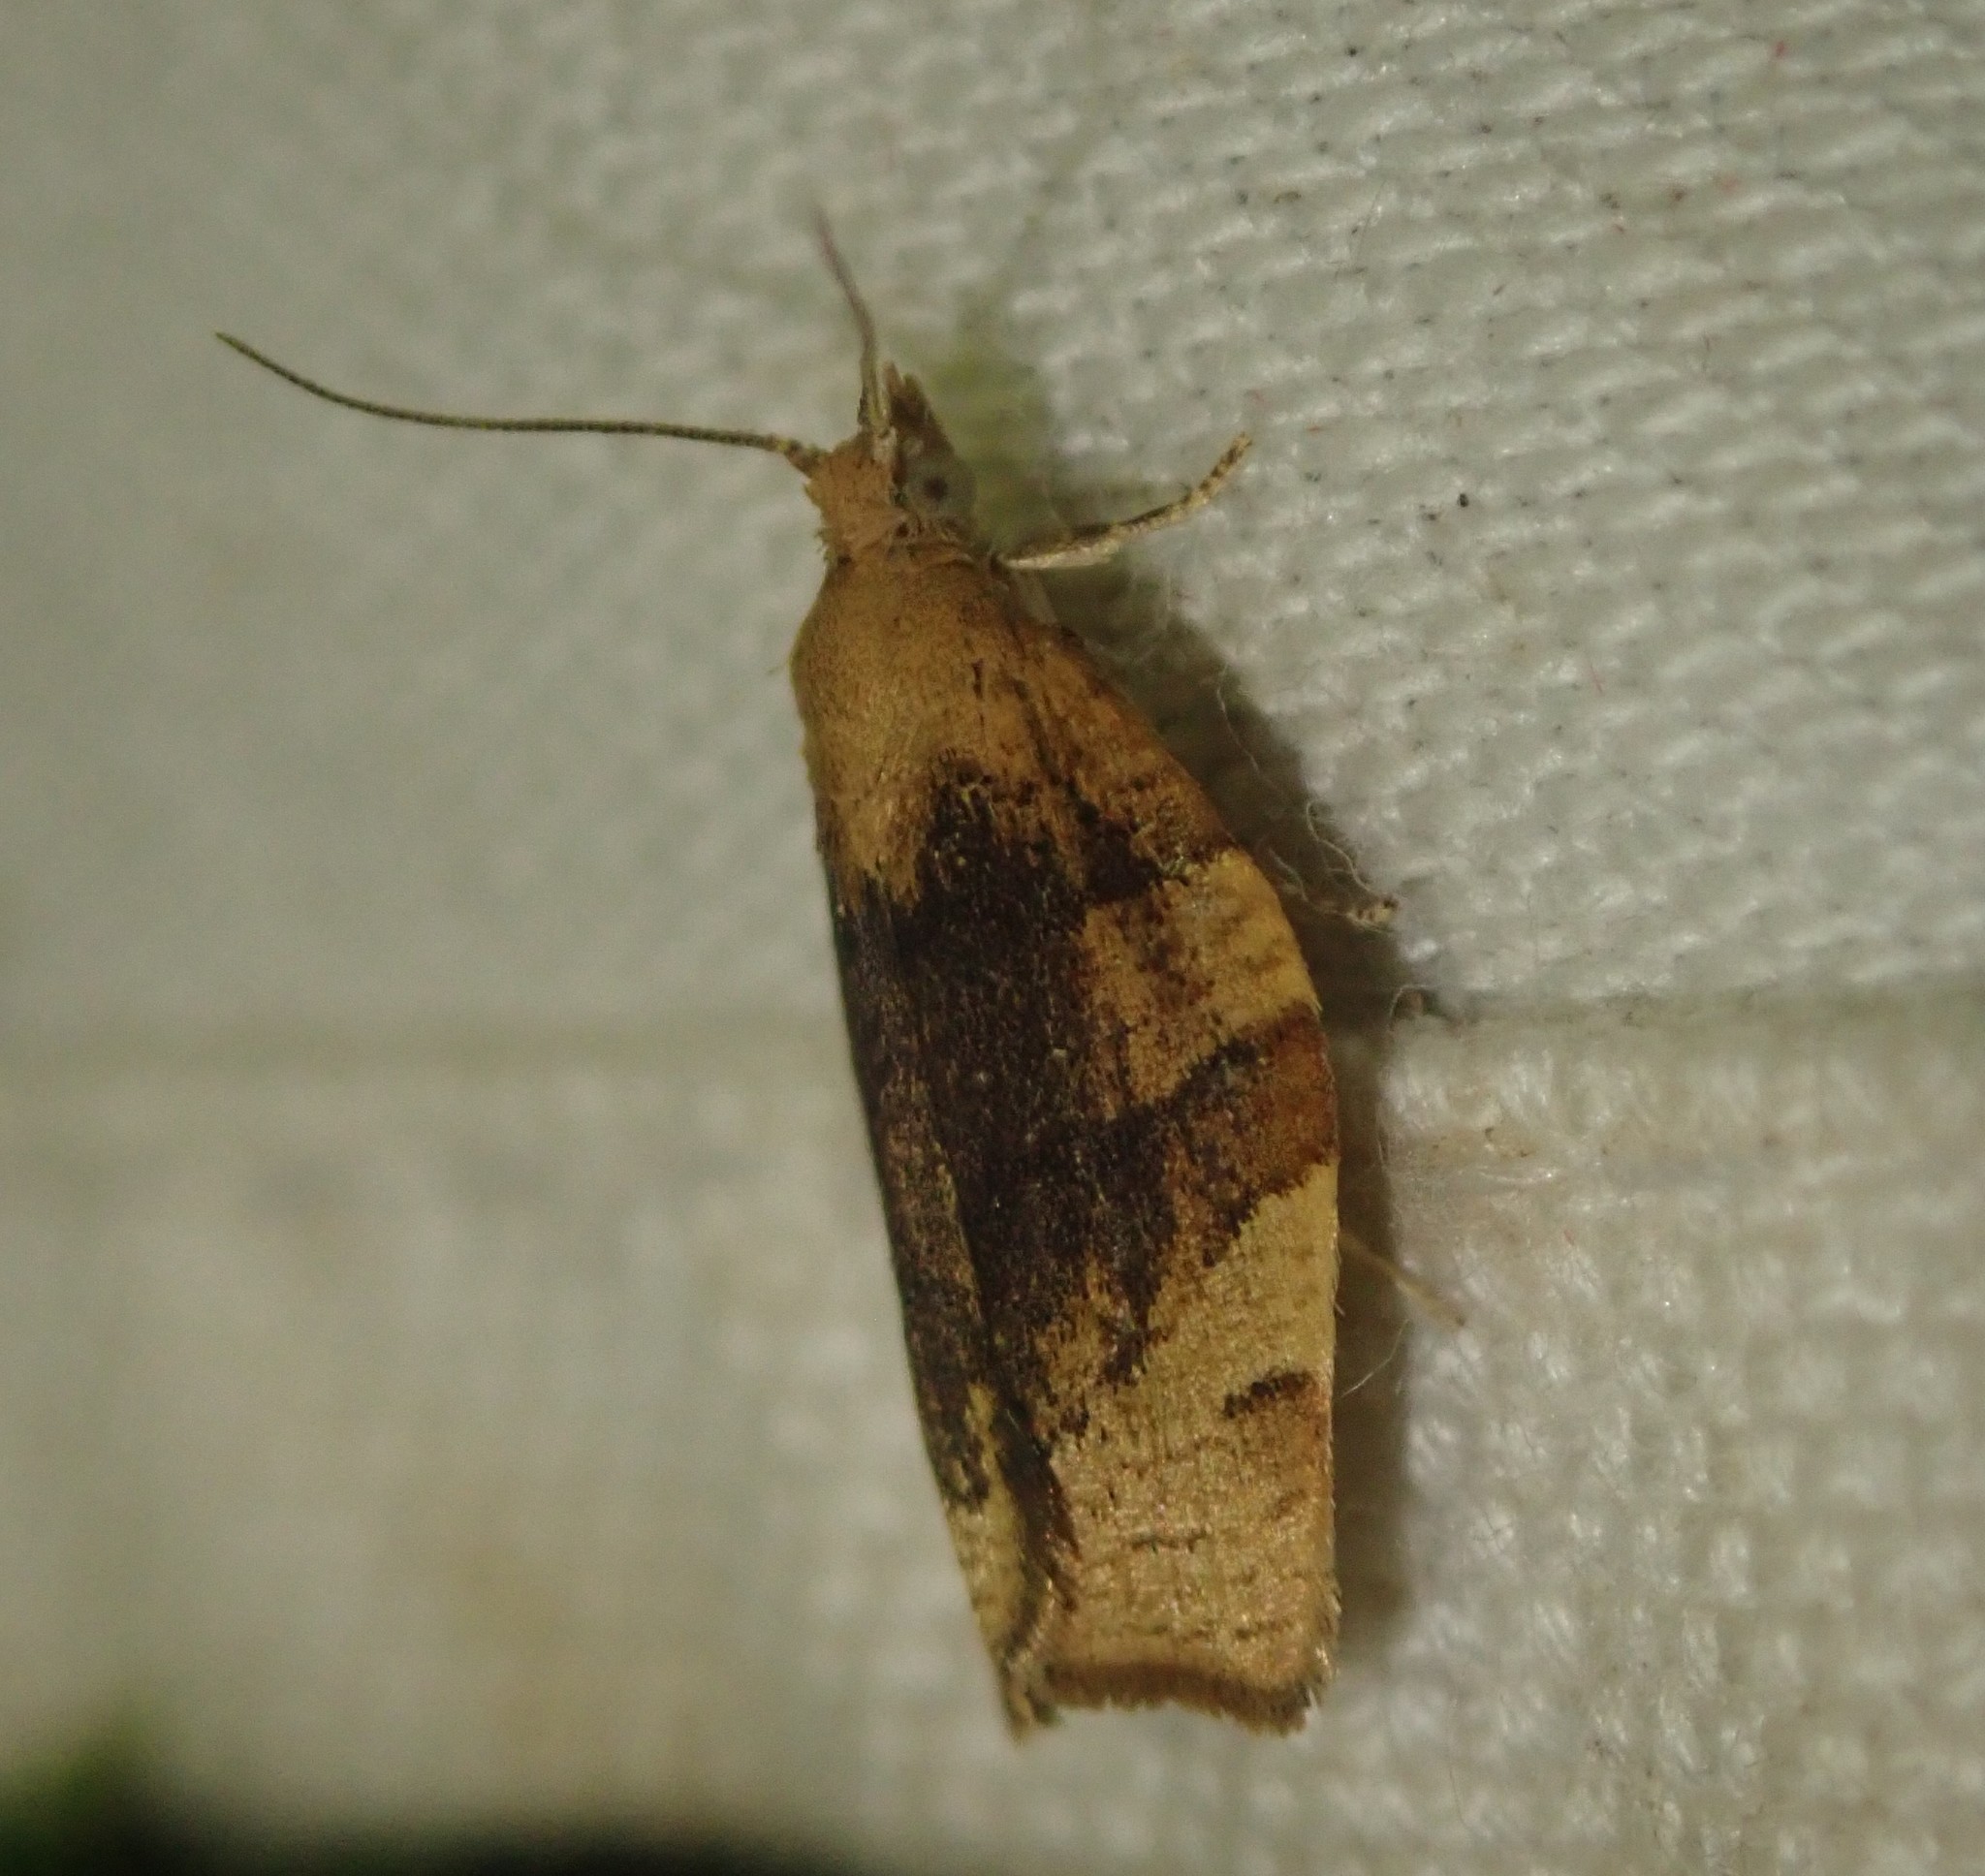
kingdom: Animalia
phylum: Arthropoda
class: Insecta
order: Lepidoptera
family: Tortricidae
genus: Pandemis
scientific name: Pandemis cerasana
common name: Barred fruit-tree tortrix
